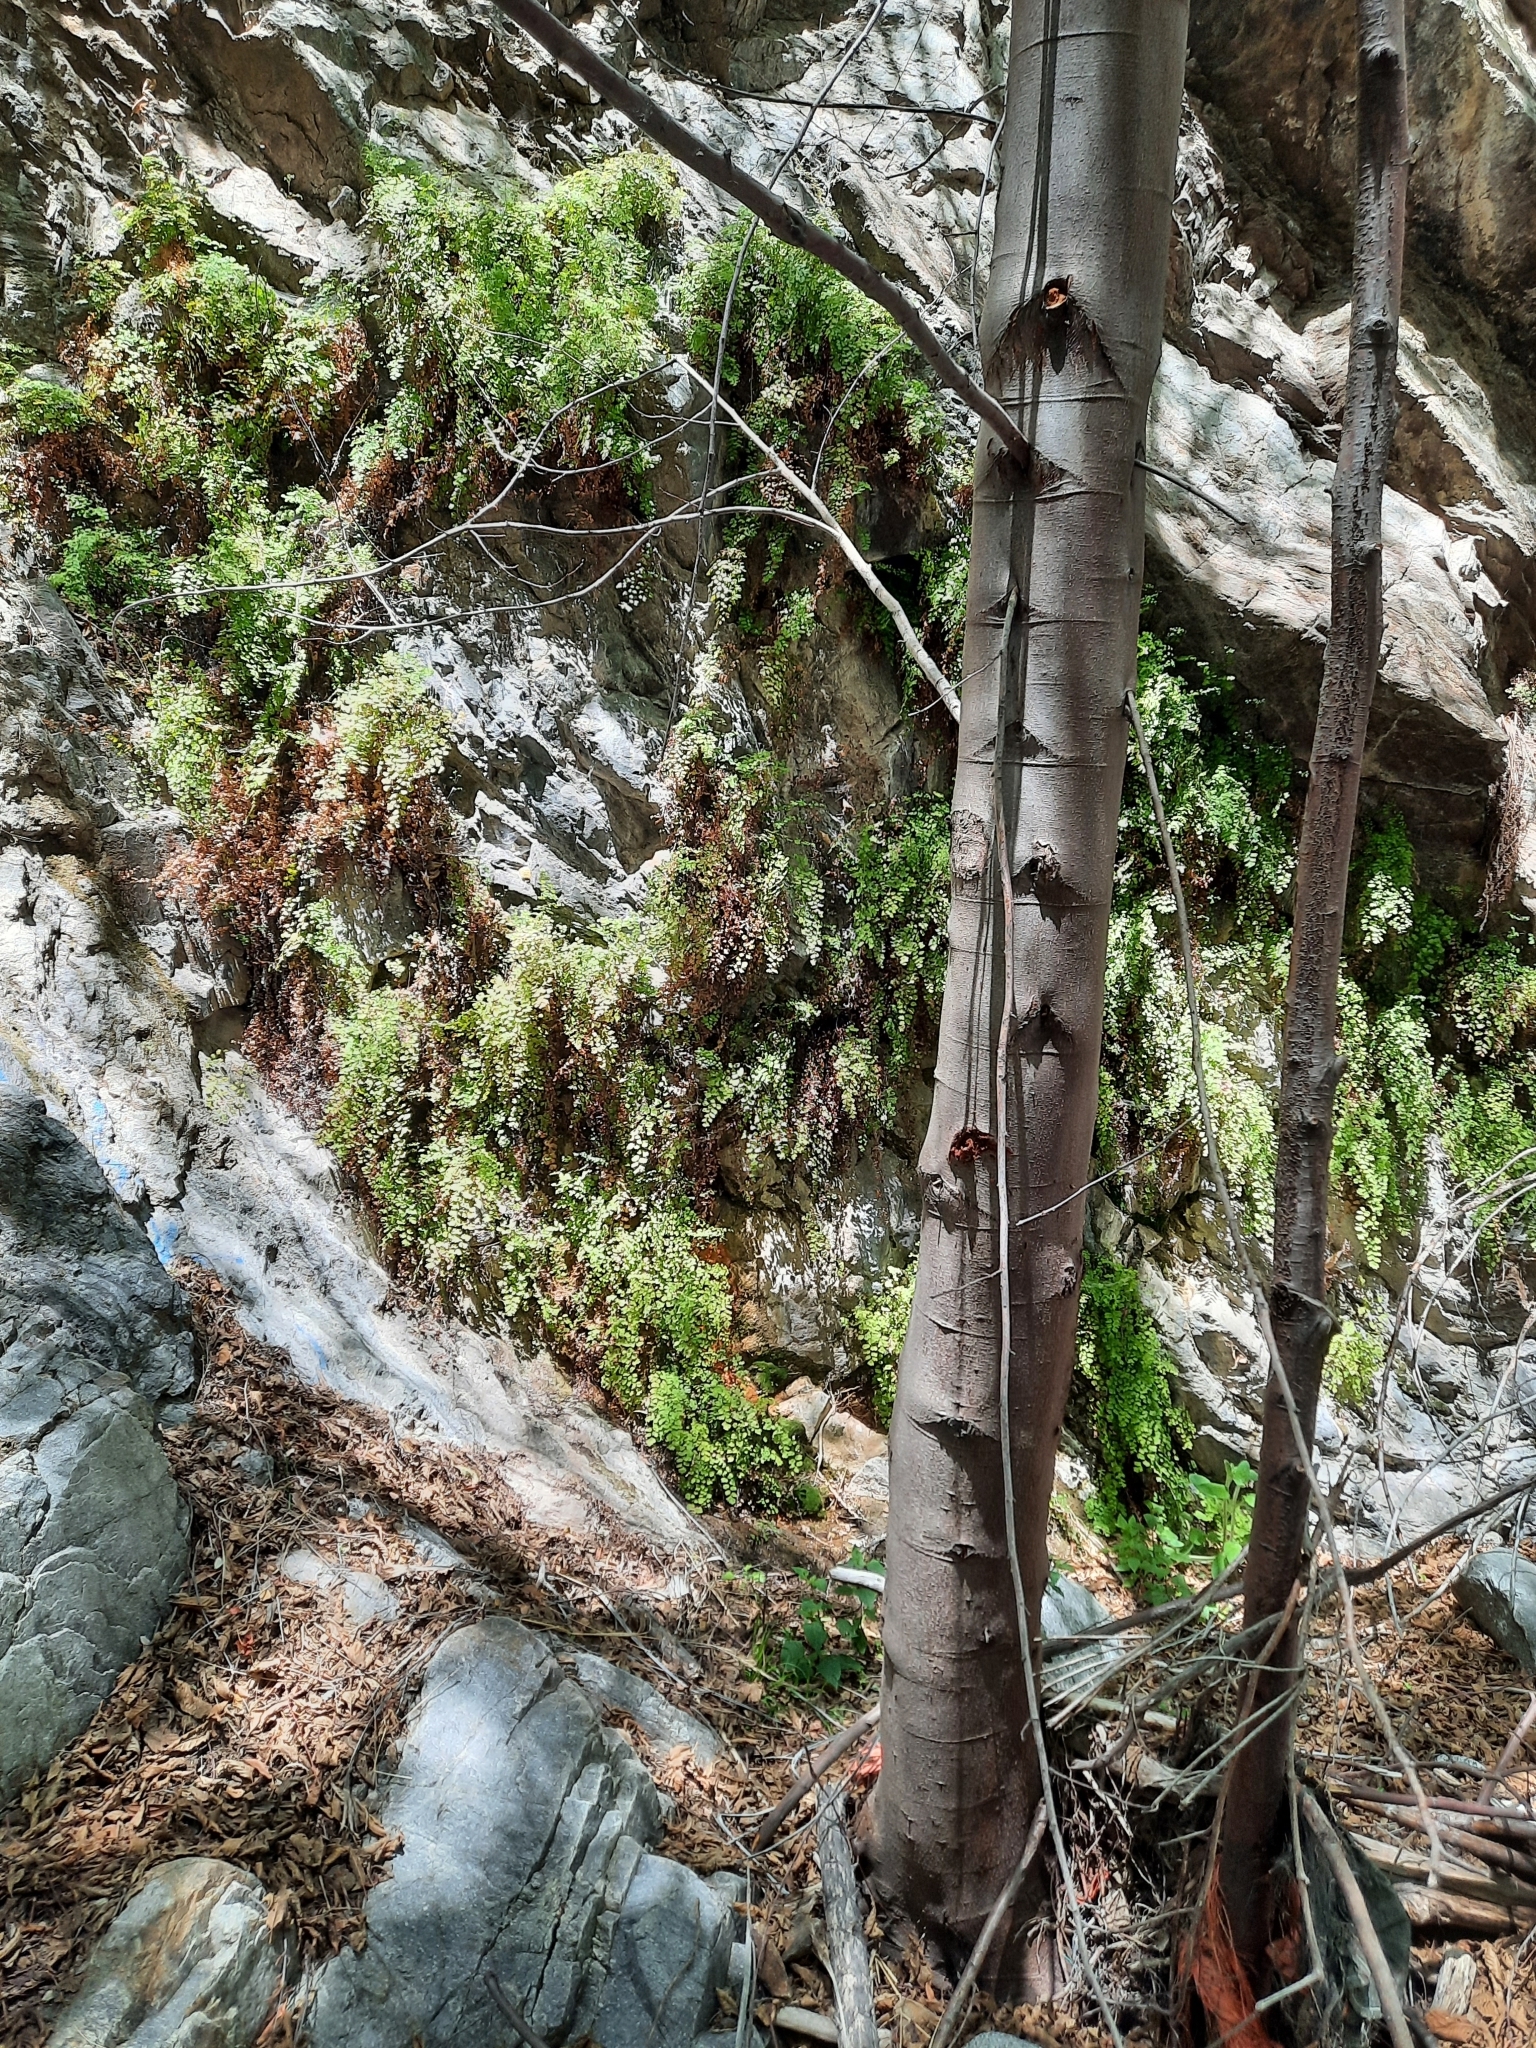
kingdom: Plantae
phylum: Tracheophyta
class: Polypodiopsida
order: Polypodiales
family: Pteridaceae
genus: Adiantum
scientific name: Adiantum jordanii
